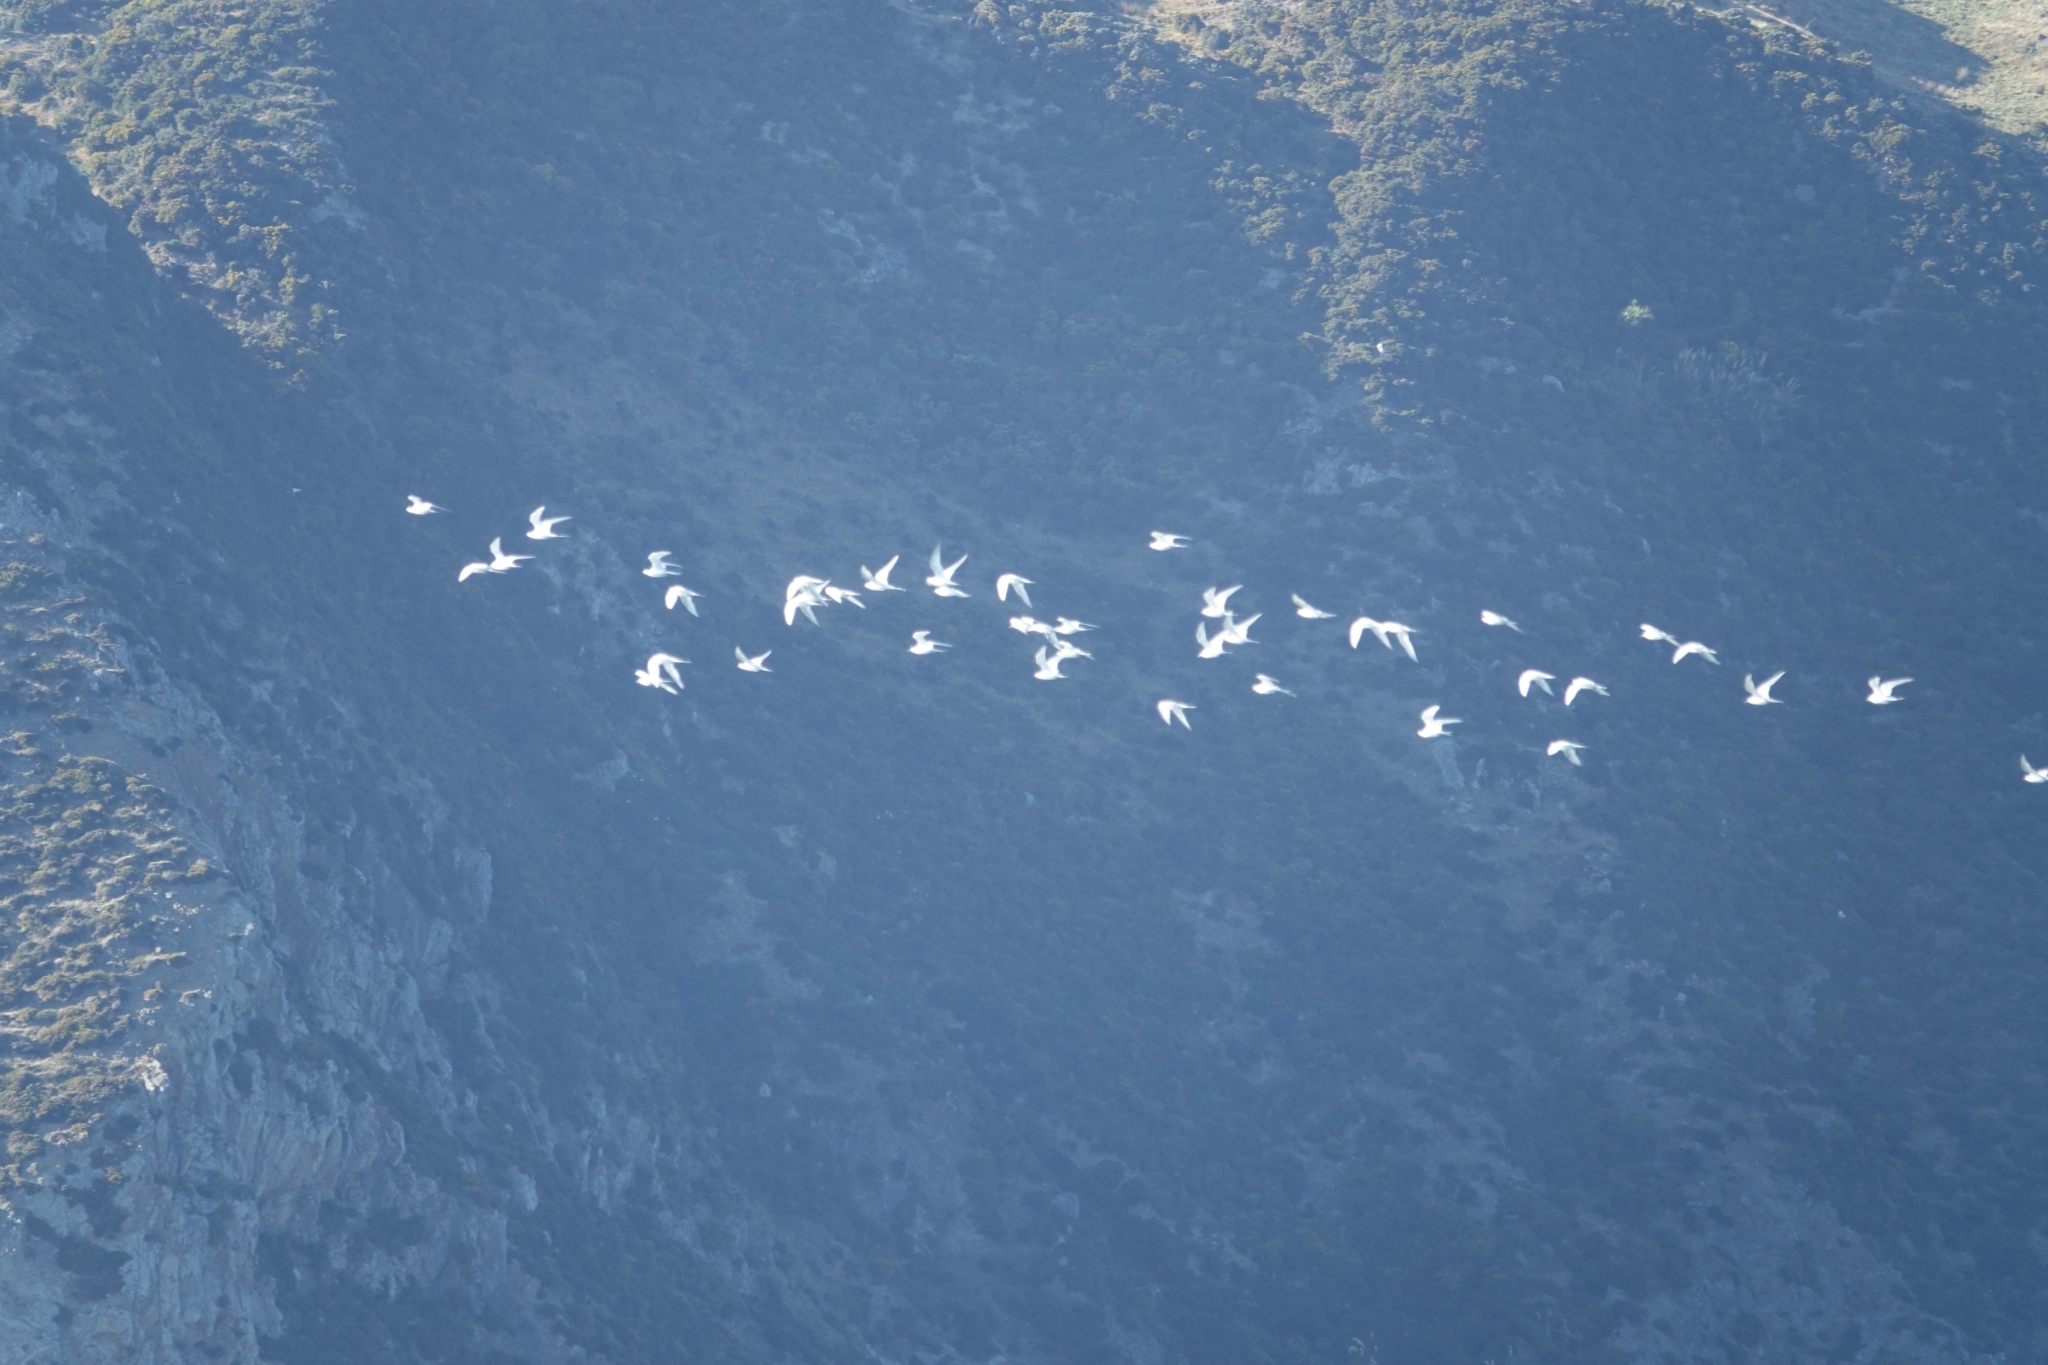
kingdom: Animalia
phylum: Chordata
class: Aves
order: Charadriiformes
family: Laridae
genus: Sterna
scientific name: Sterna striata
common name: White-fronted tern
